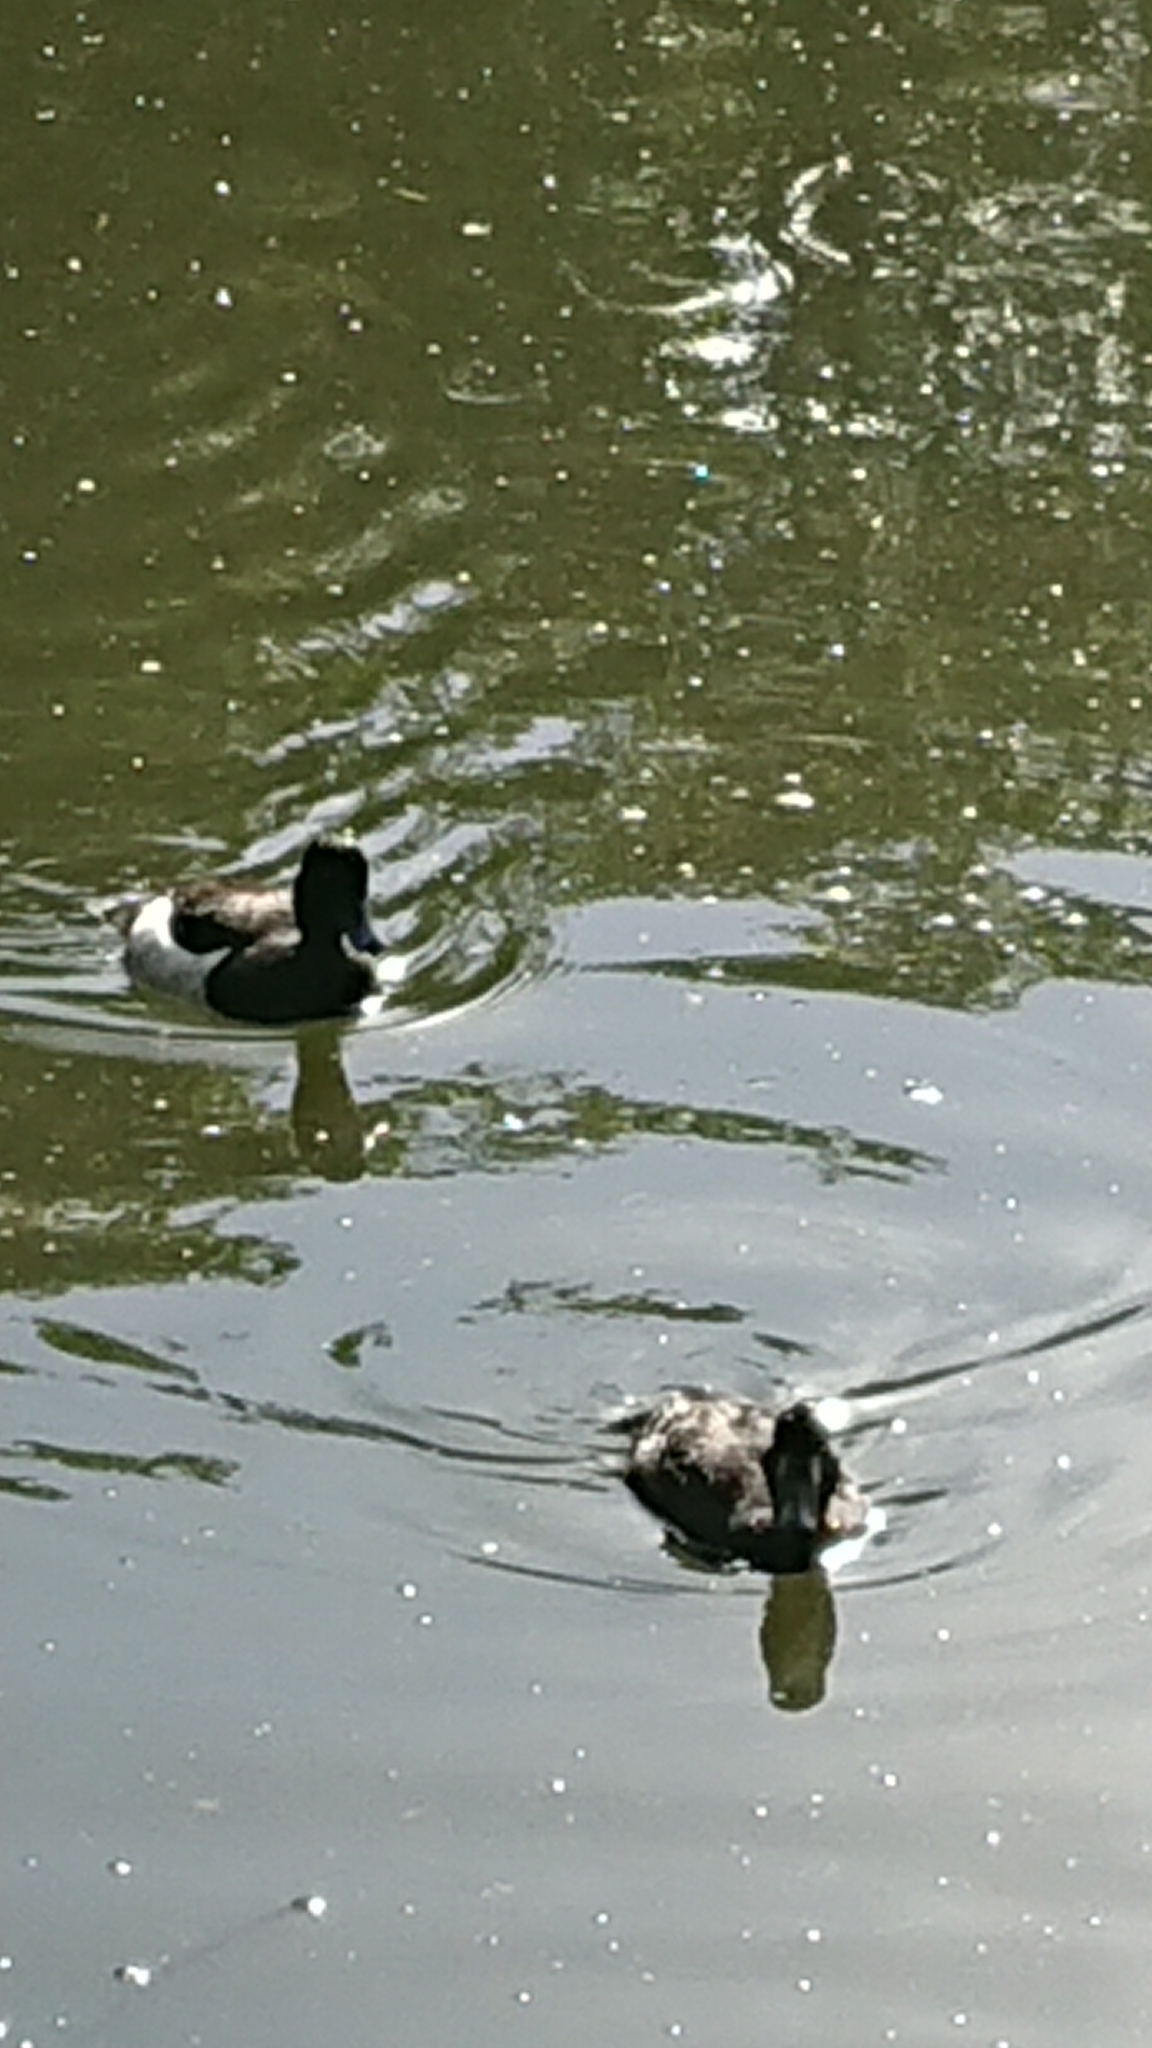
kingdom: Animalia
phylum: Chordata
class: Aves
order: Anseriformes
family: Anatidae
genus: Aythya
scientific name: Aythya fuligula
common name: Tufted duck
